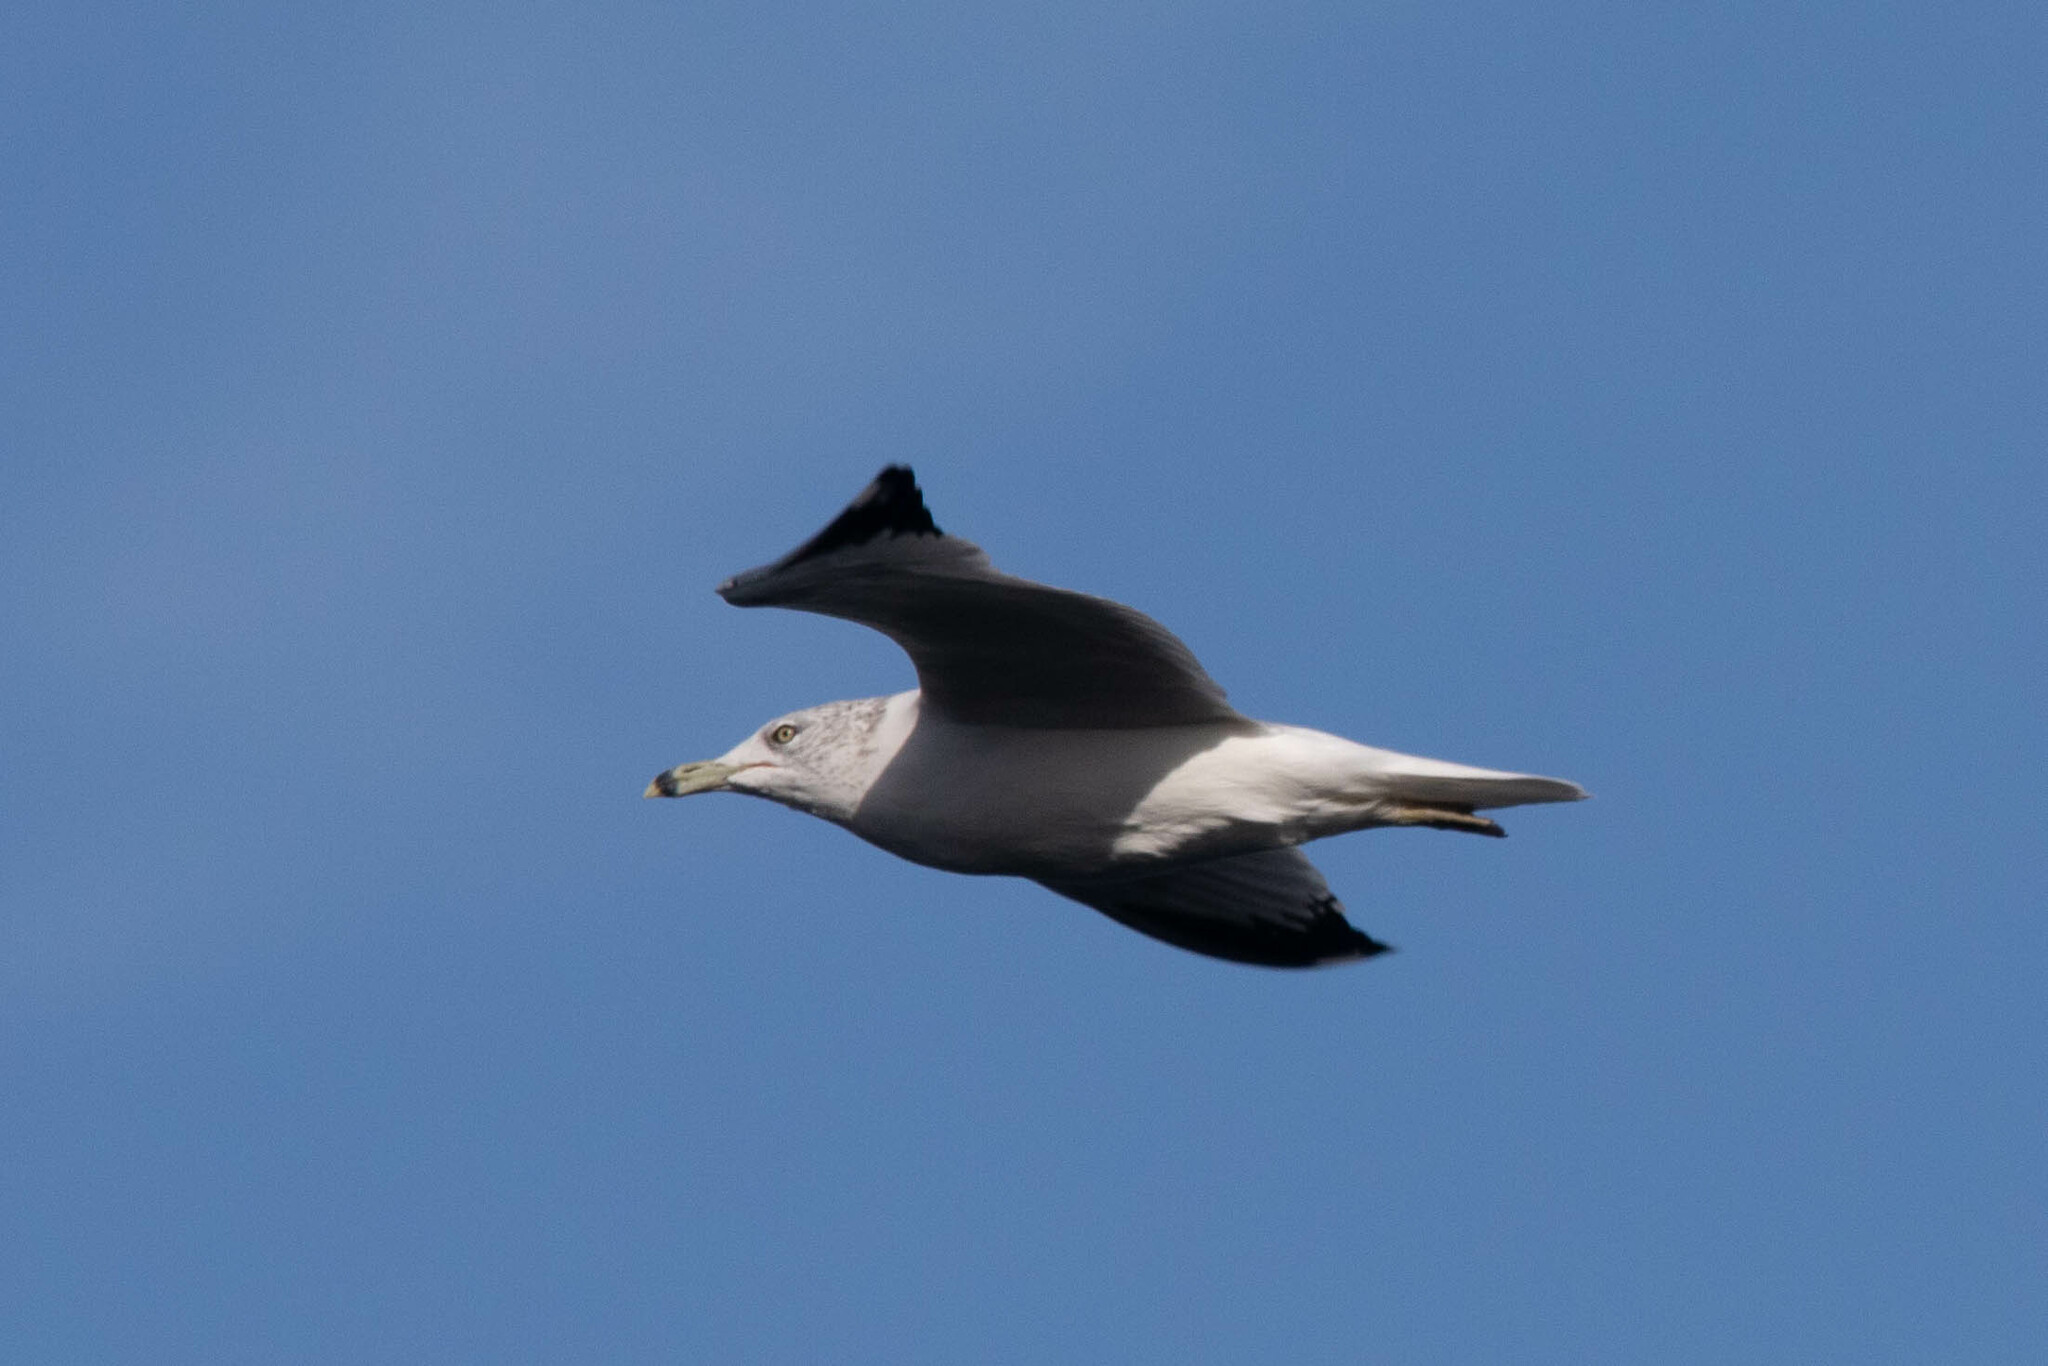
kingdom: Animalia
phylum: Chordata
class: Aves
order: Charadriiformes
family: Laridae
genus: Larus
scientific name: Larus delawarensis
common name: Ring-billed gull
